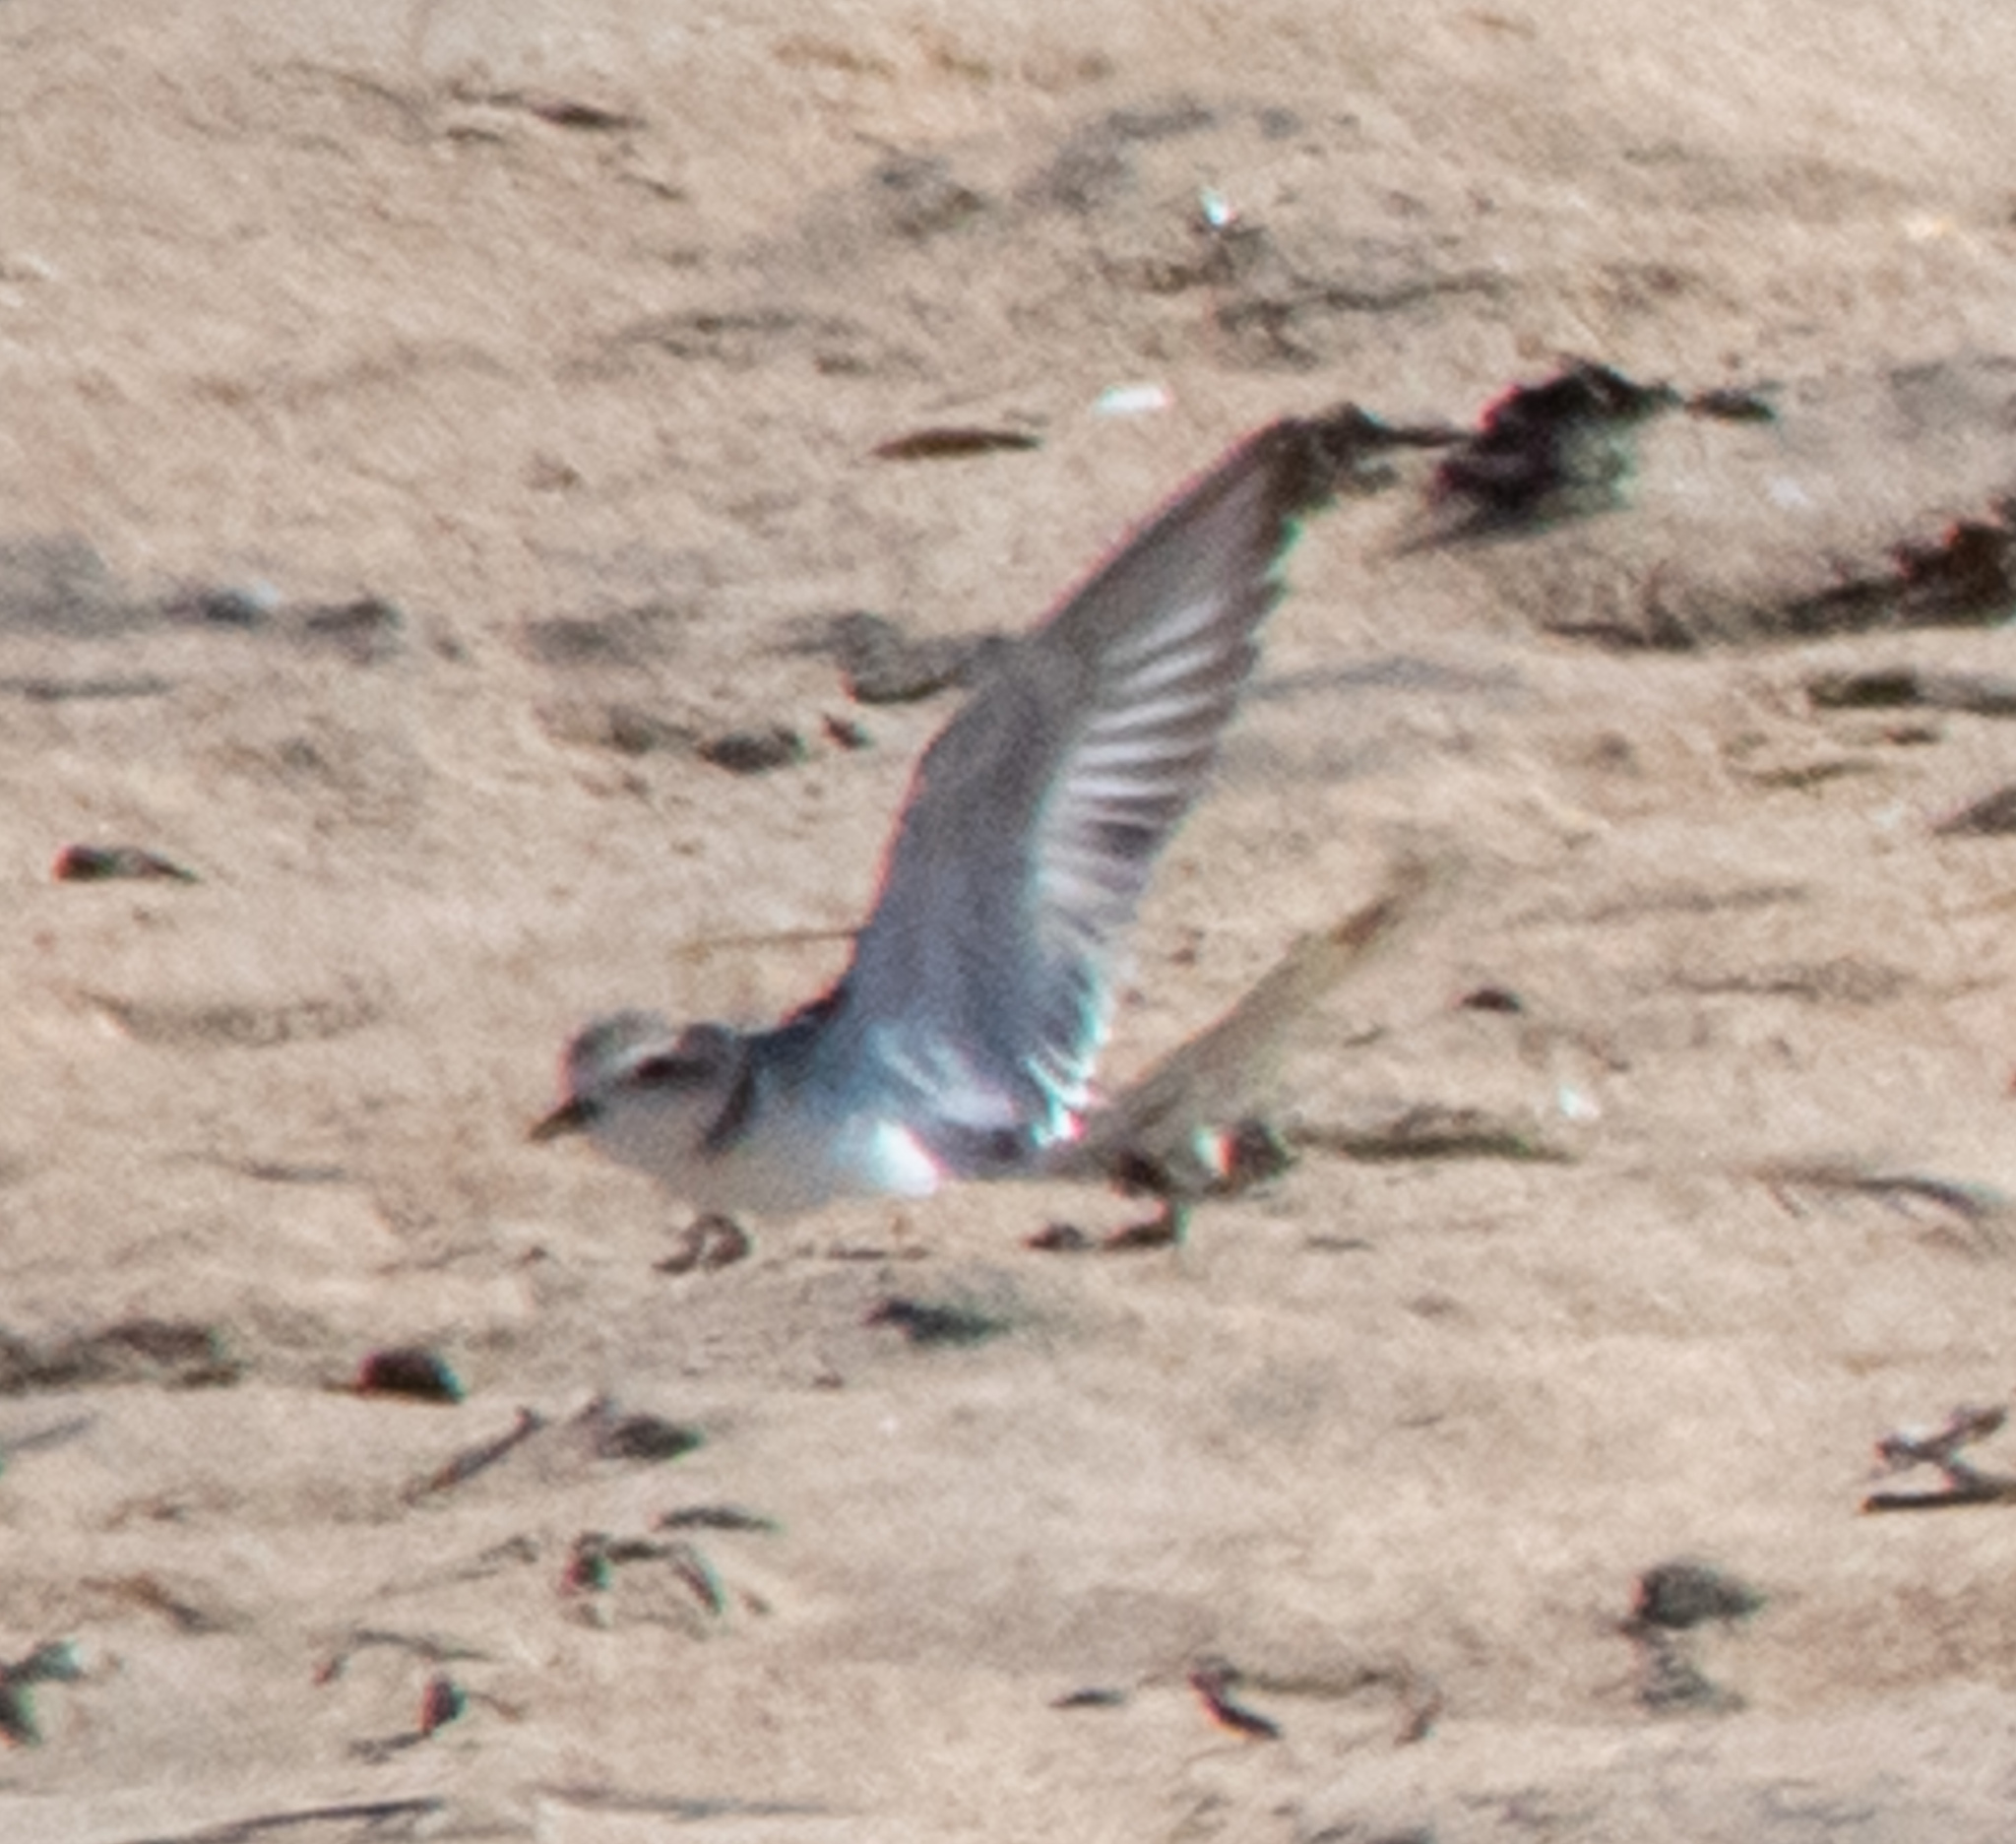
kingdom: Animalia
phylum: Chordata
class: Aves
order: Charadriiformes
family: Charadriidae
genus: Anarhynchus
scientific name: Anarhynchus
